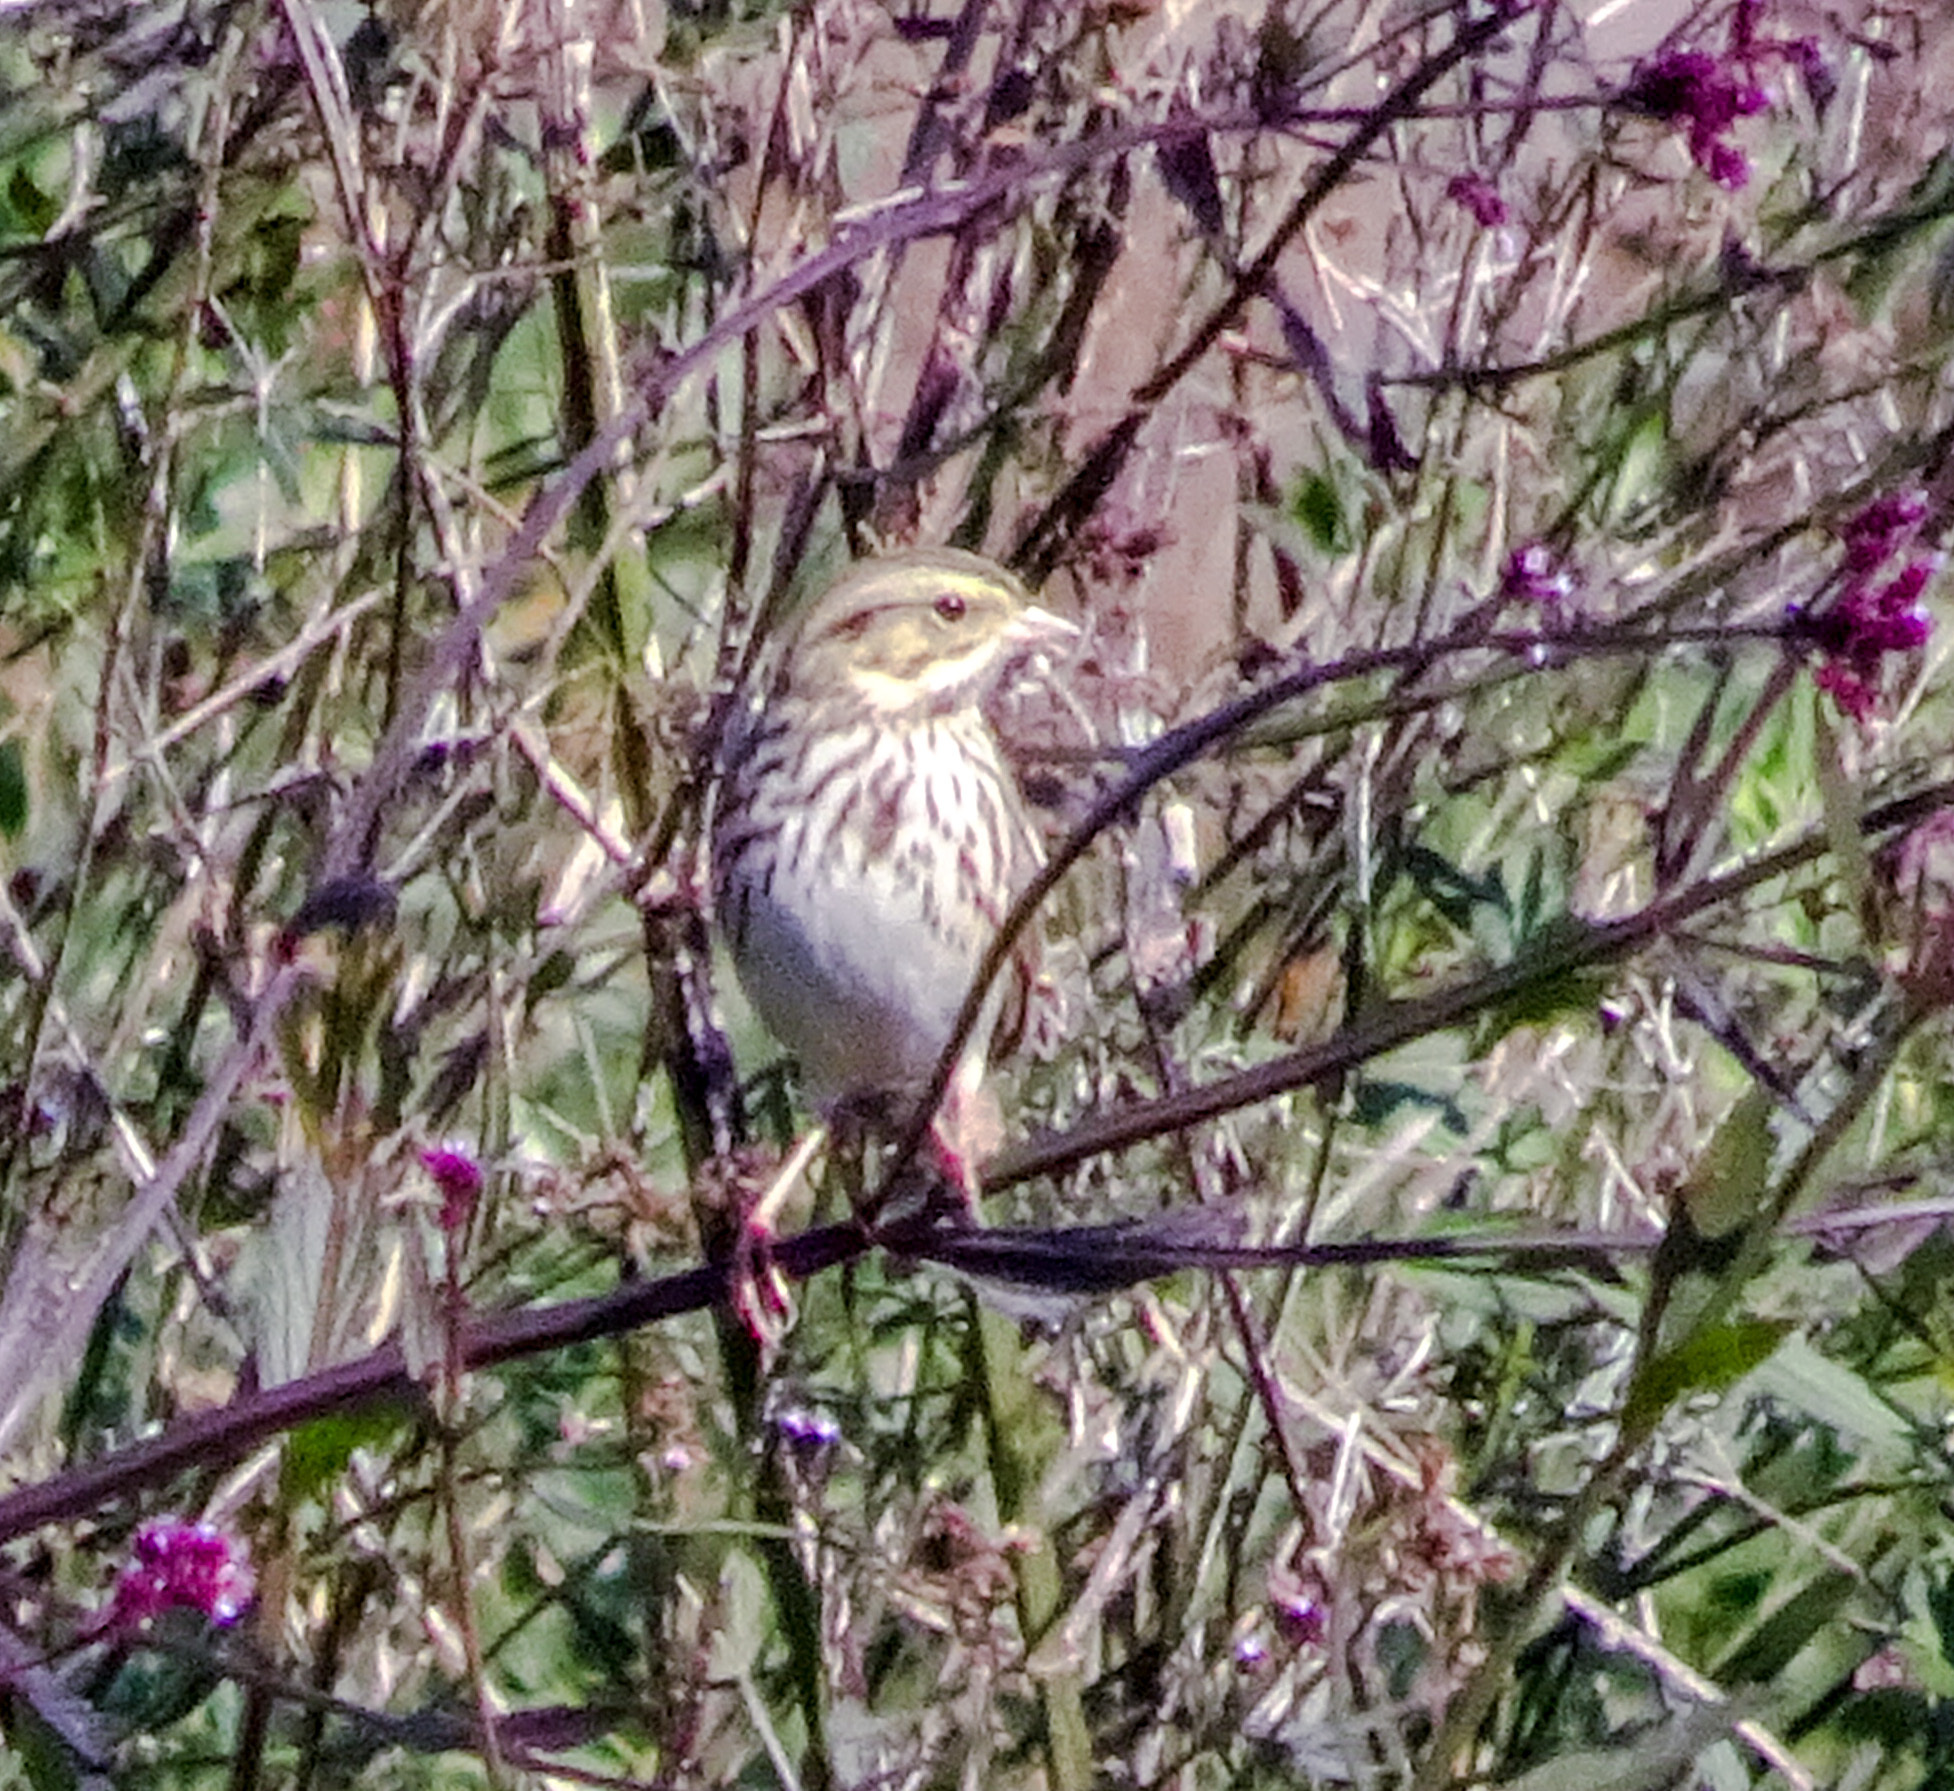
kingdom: Animalia
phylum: Chordata
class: Aves
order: Passeriformes
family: Passerellidae
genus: Passerculus
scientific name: Passerculus sandwichensis
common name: Savannah sparrow
